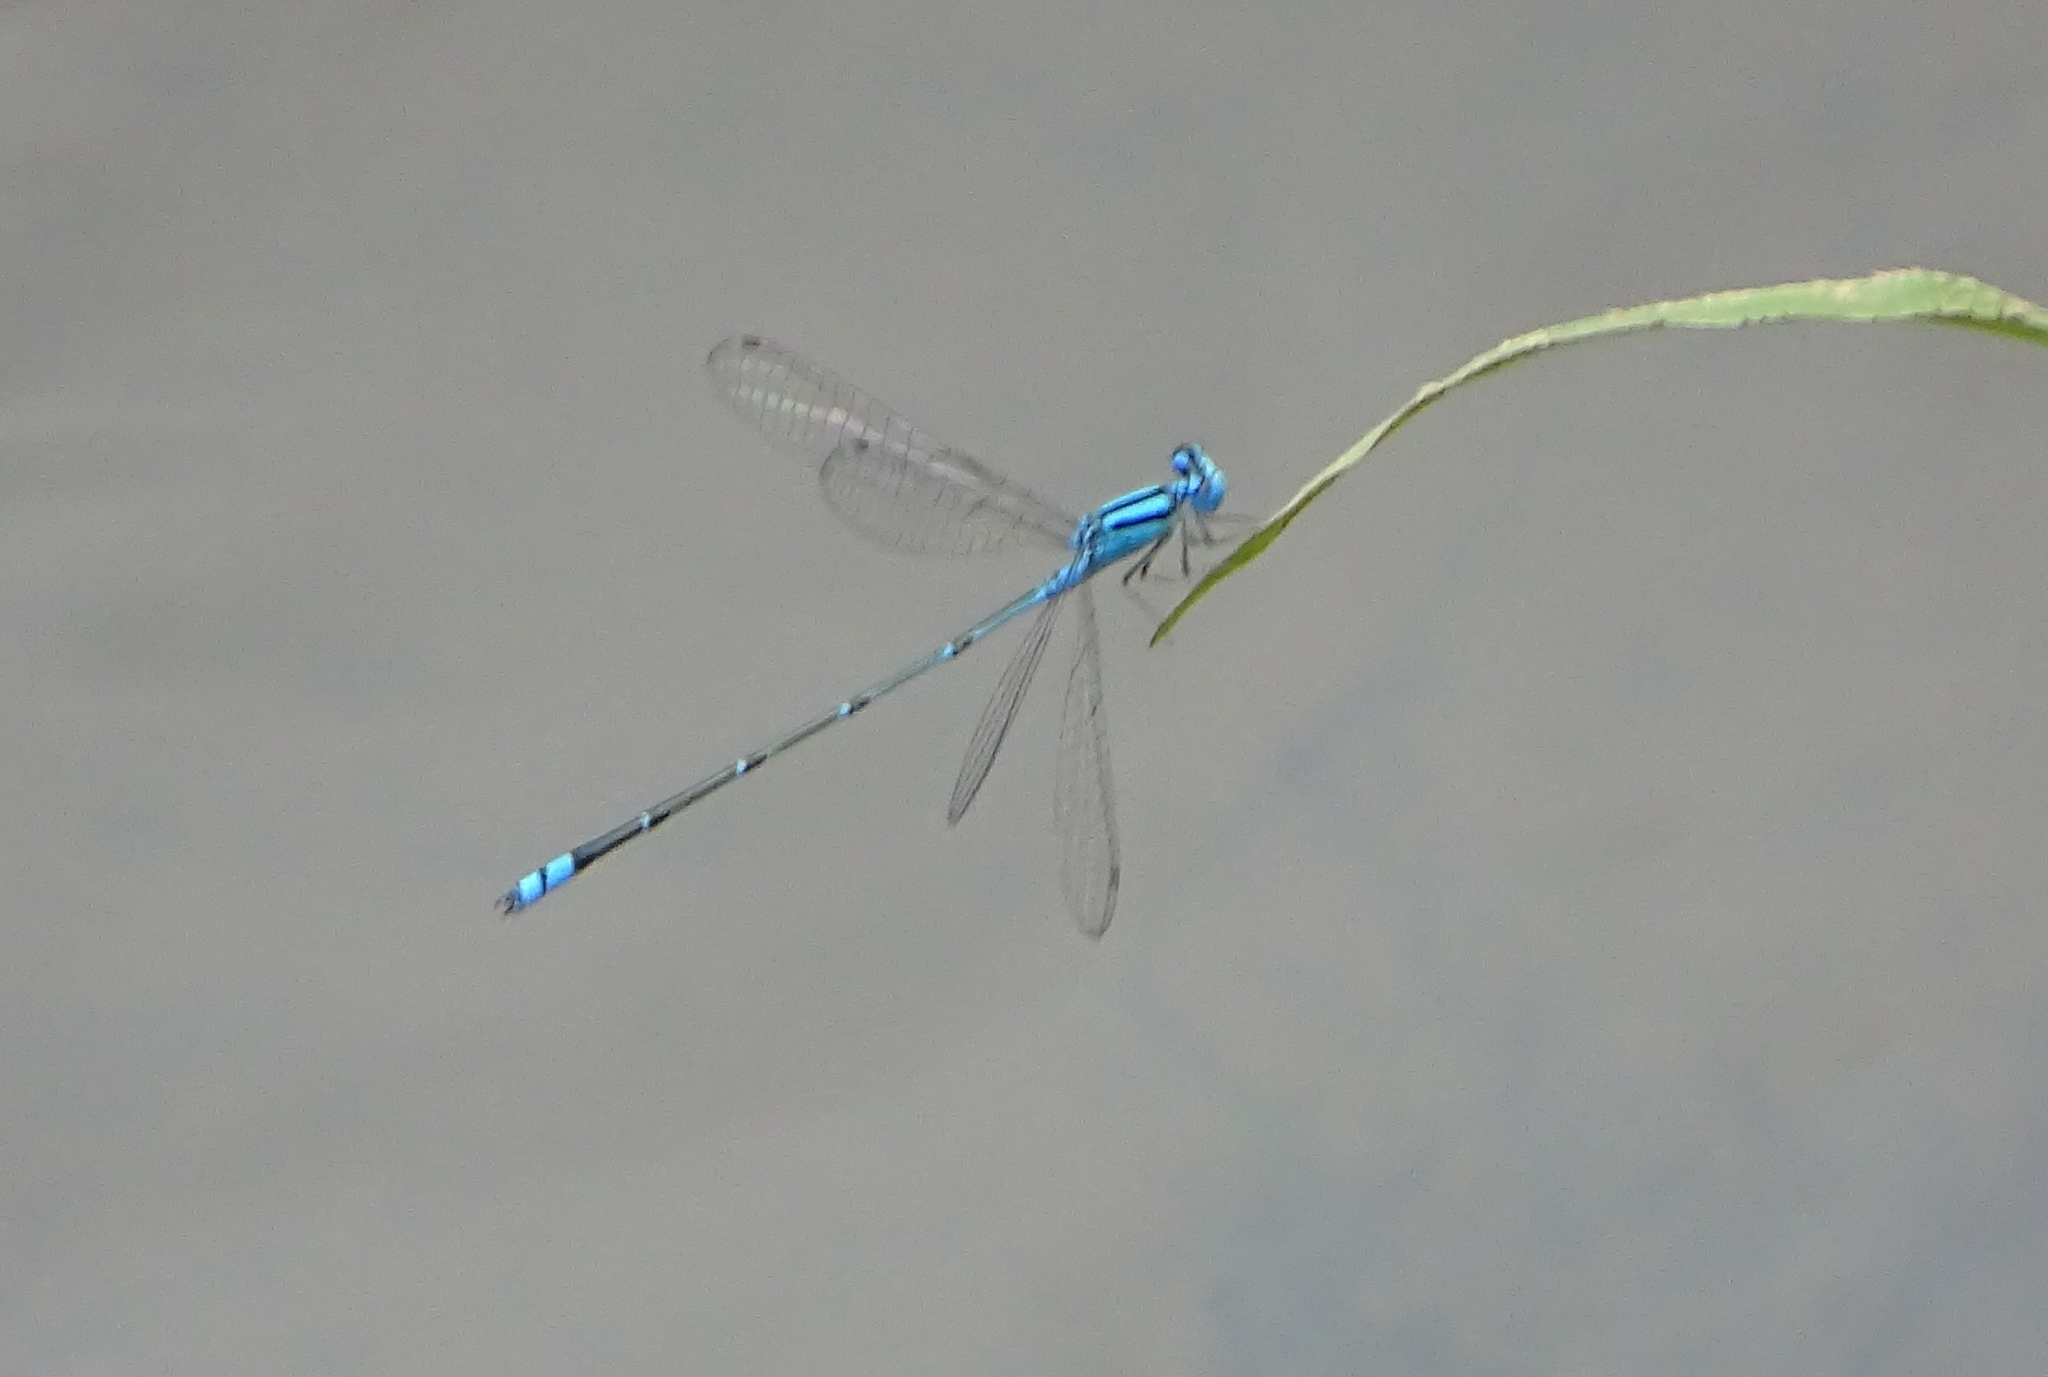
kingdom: Animalia
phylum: Arthropoda
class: Insecta
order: Odonata
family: Coenagrionidae
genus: Pseudagrion
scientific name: Pseudagrion microcephalum
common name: Blue riverdamsel
